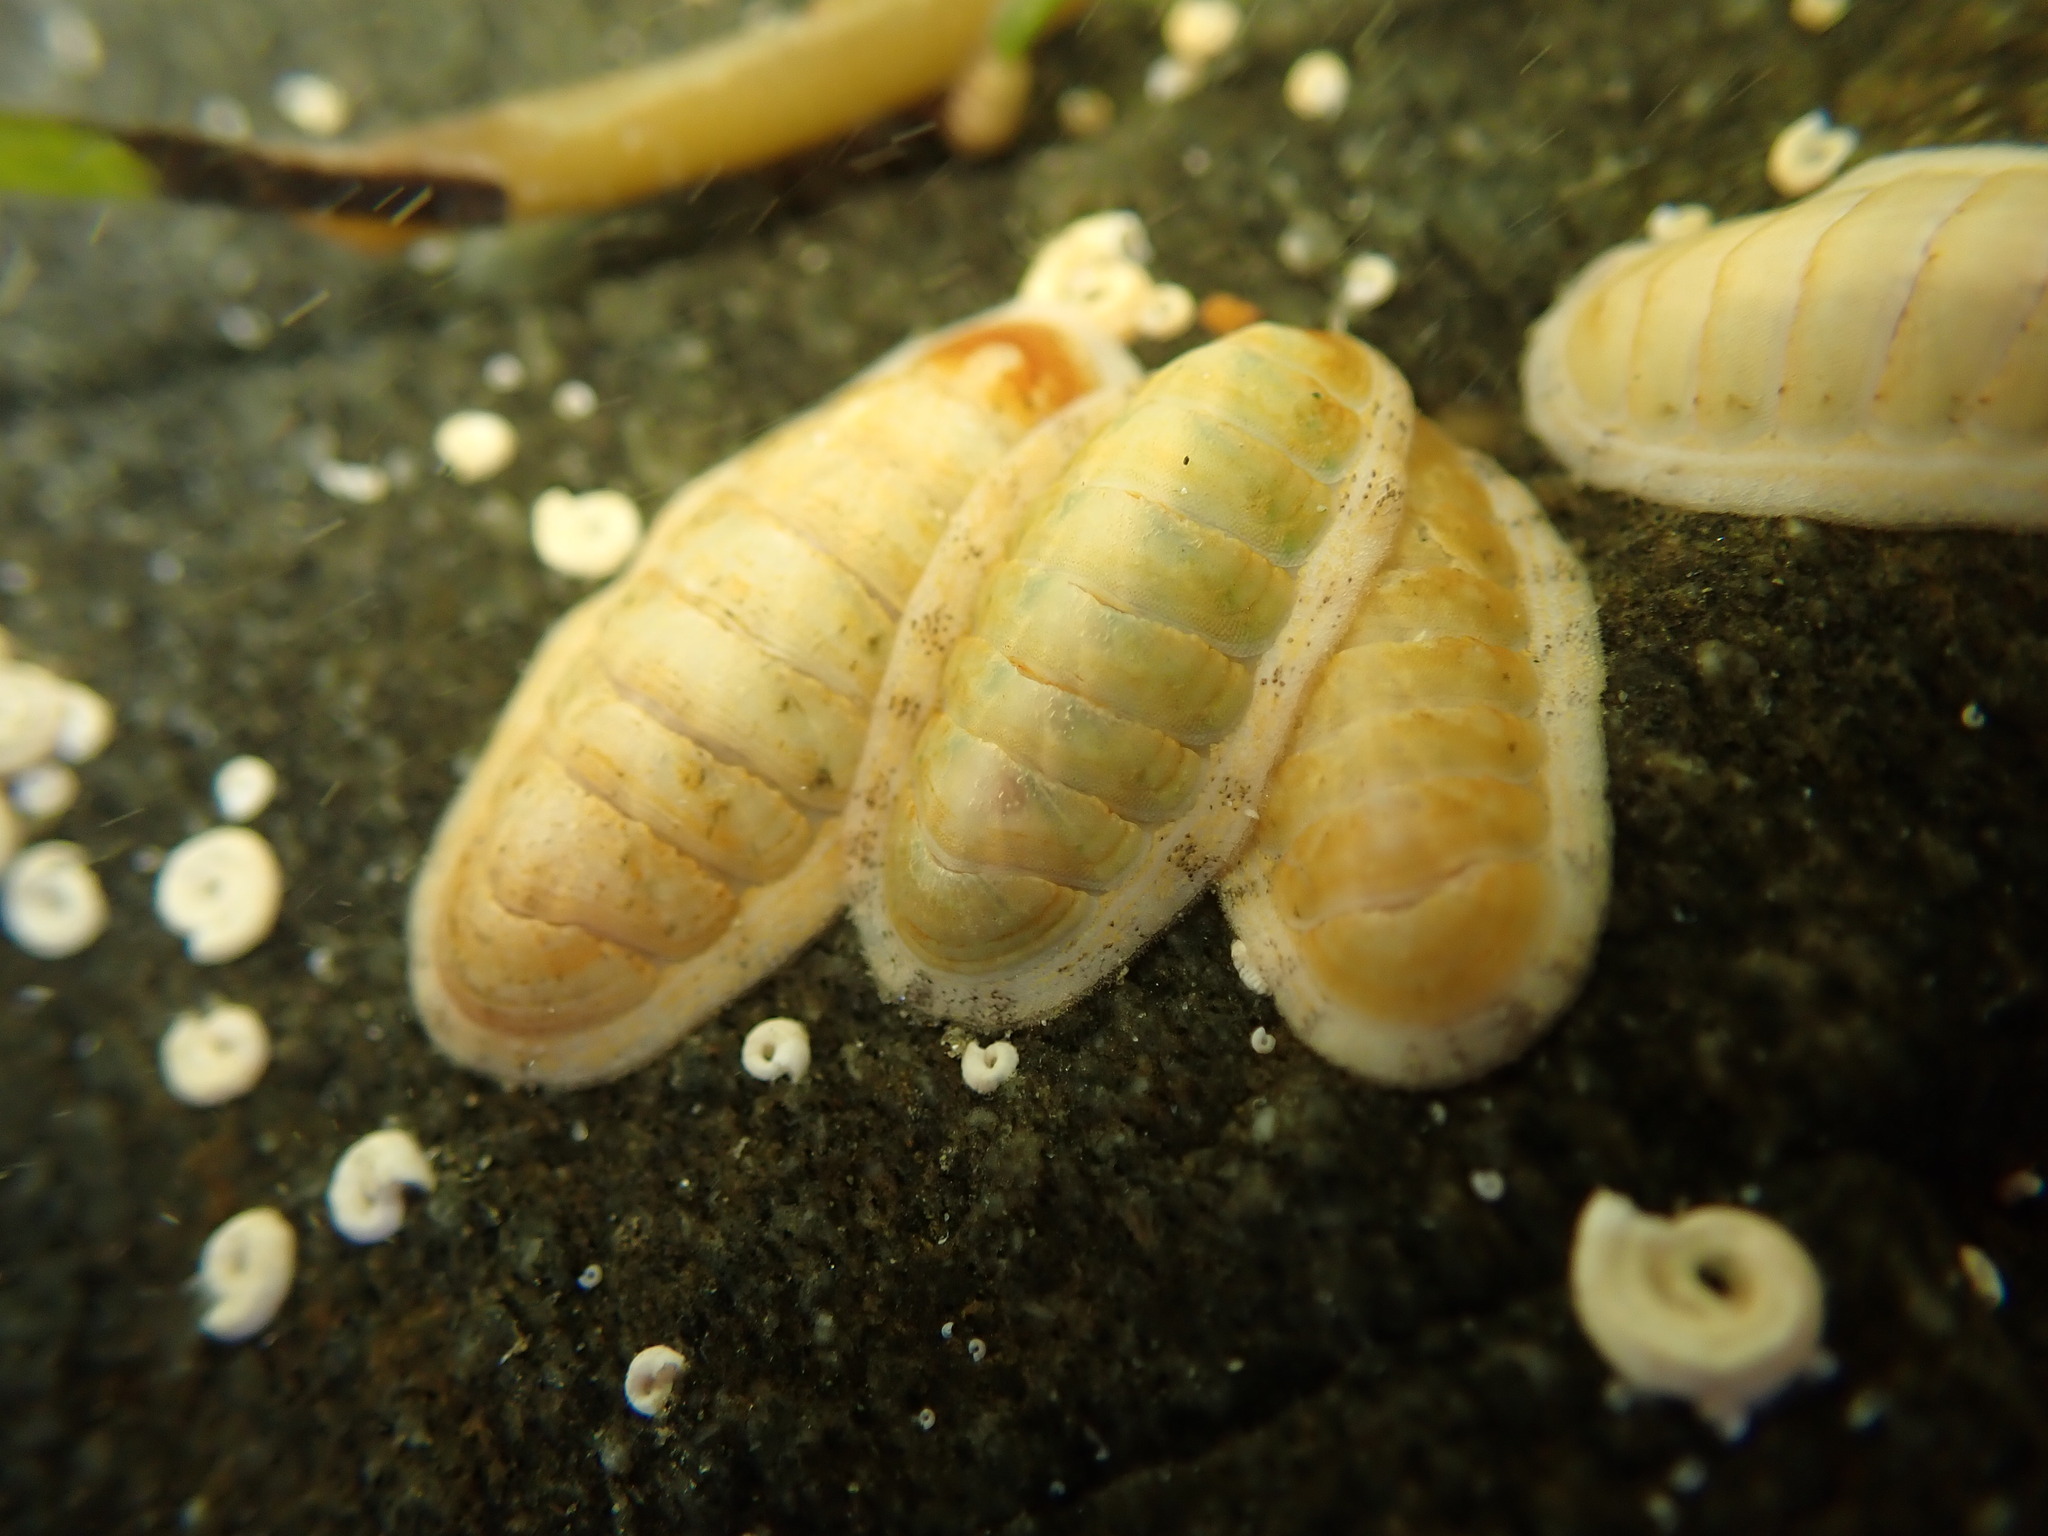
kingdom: Animalia
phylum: Mollusca
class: Polyplacophora
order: Chitonida
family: Ischnochitonidae
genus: Ischnochiton
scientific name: Ischnochiton circumvallatus
